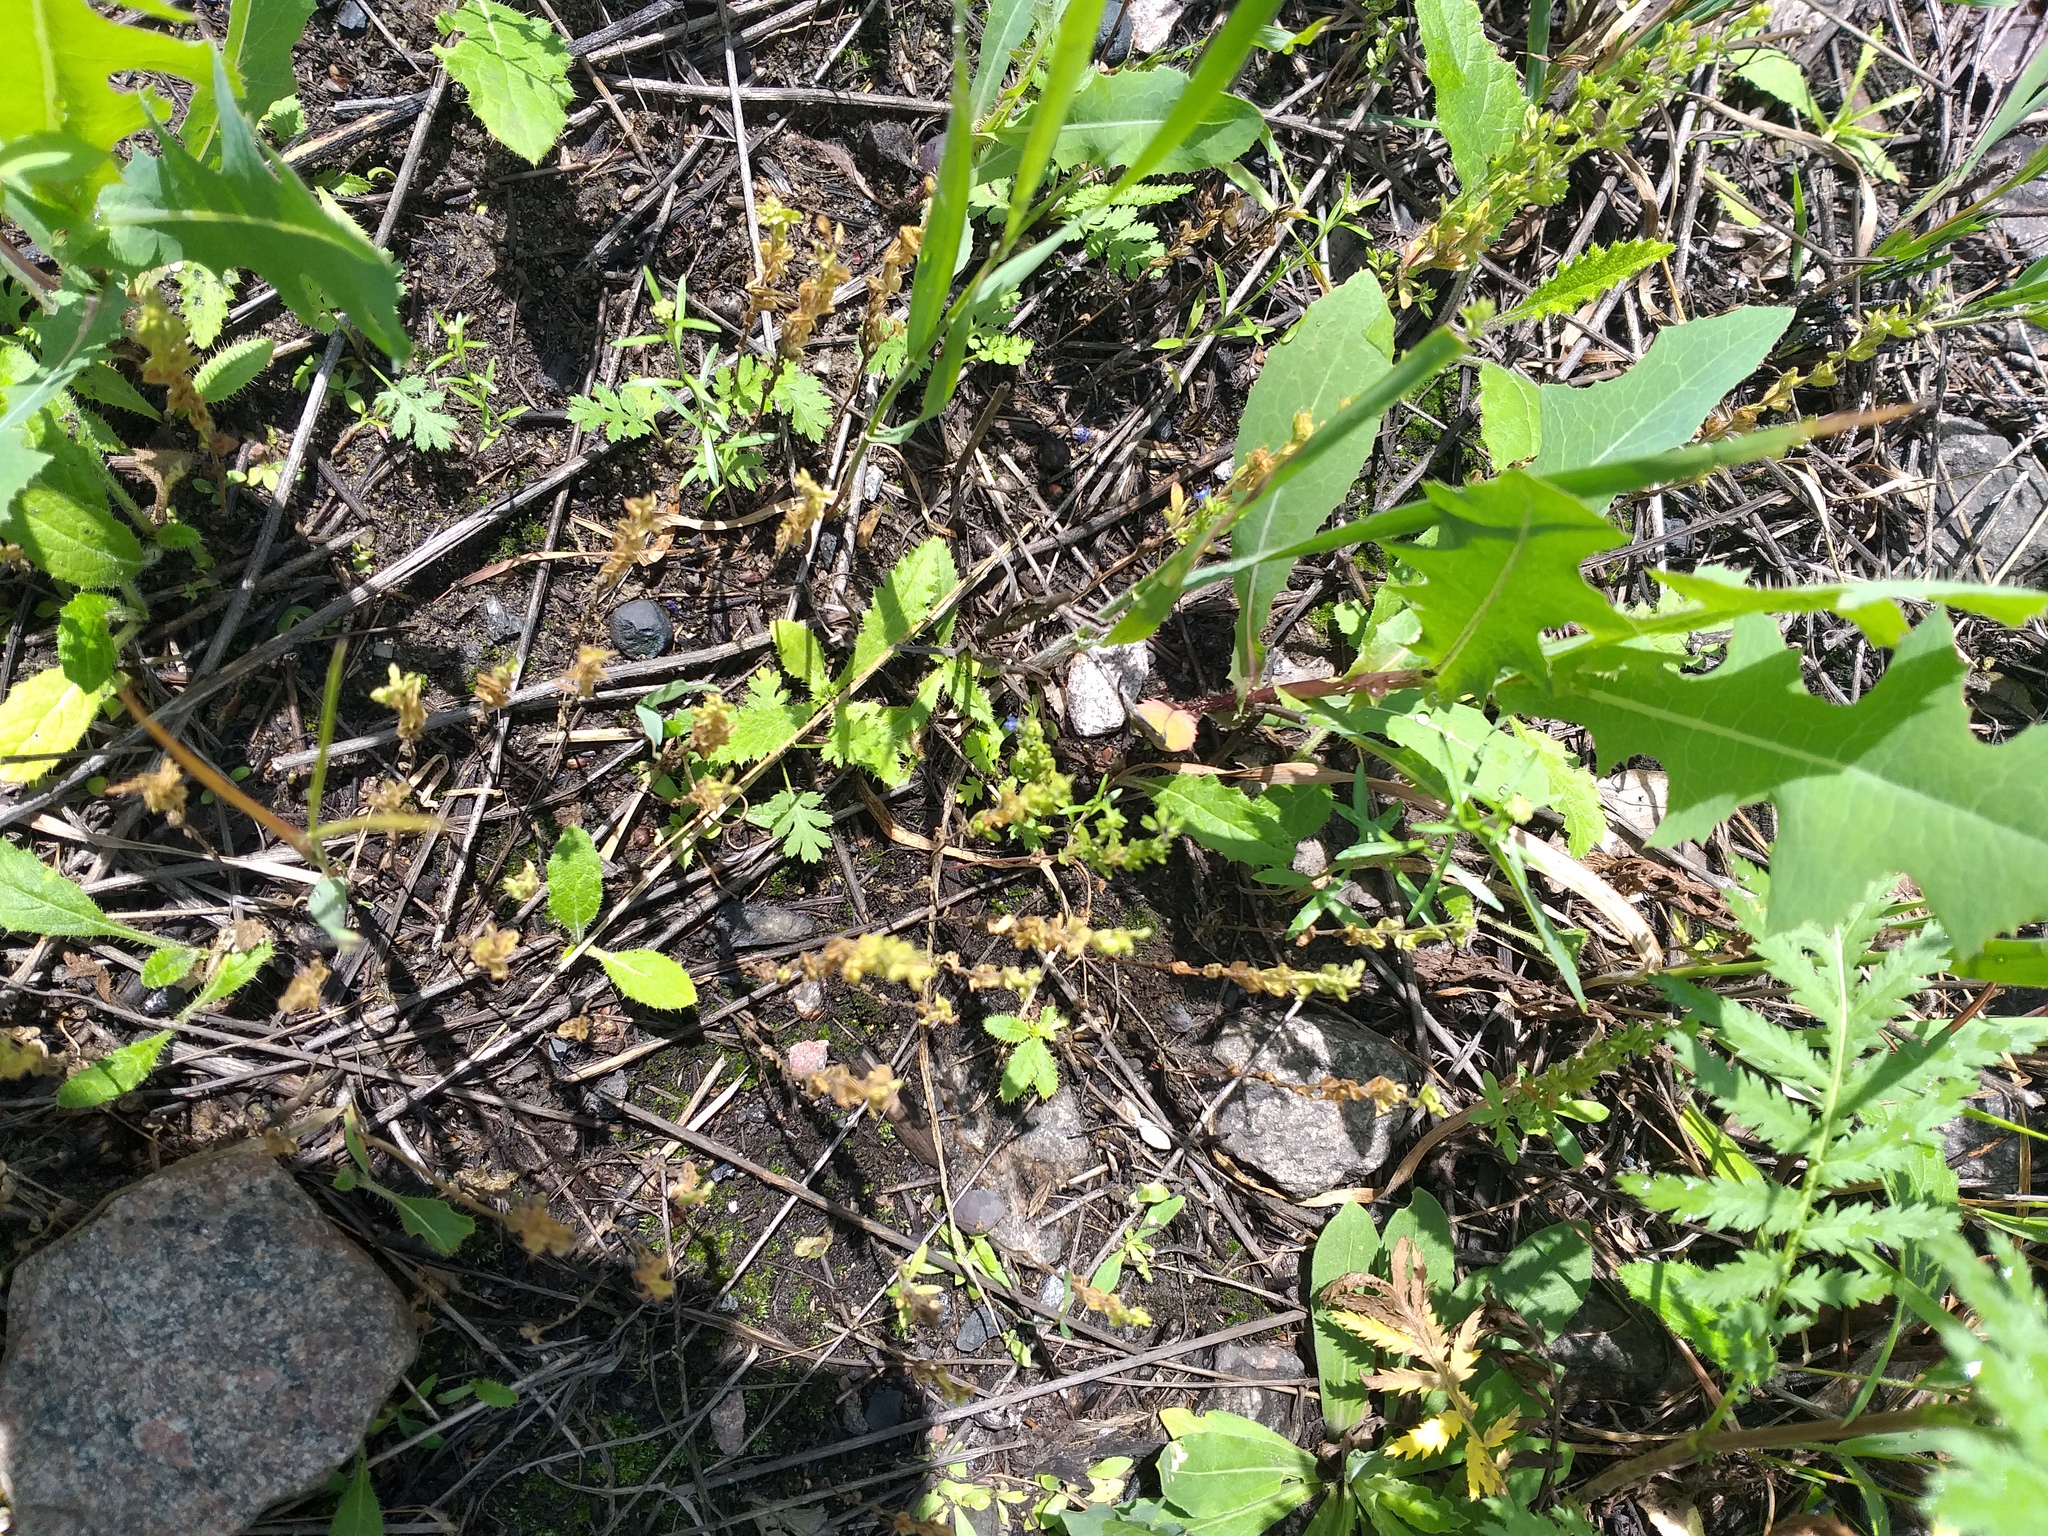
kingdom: Plantae
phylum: Tracheophyta
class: Magnoliopsida
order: Lamiales
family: Plantaginaceae
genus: Veronica
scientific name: Veronica verna
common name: Spring speedwell
